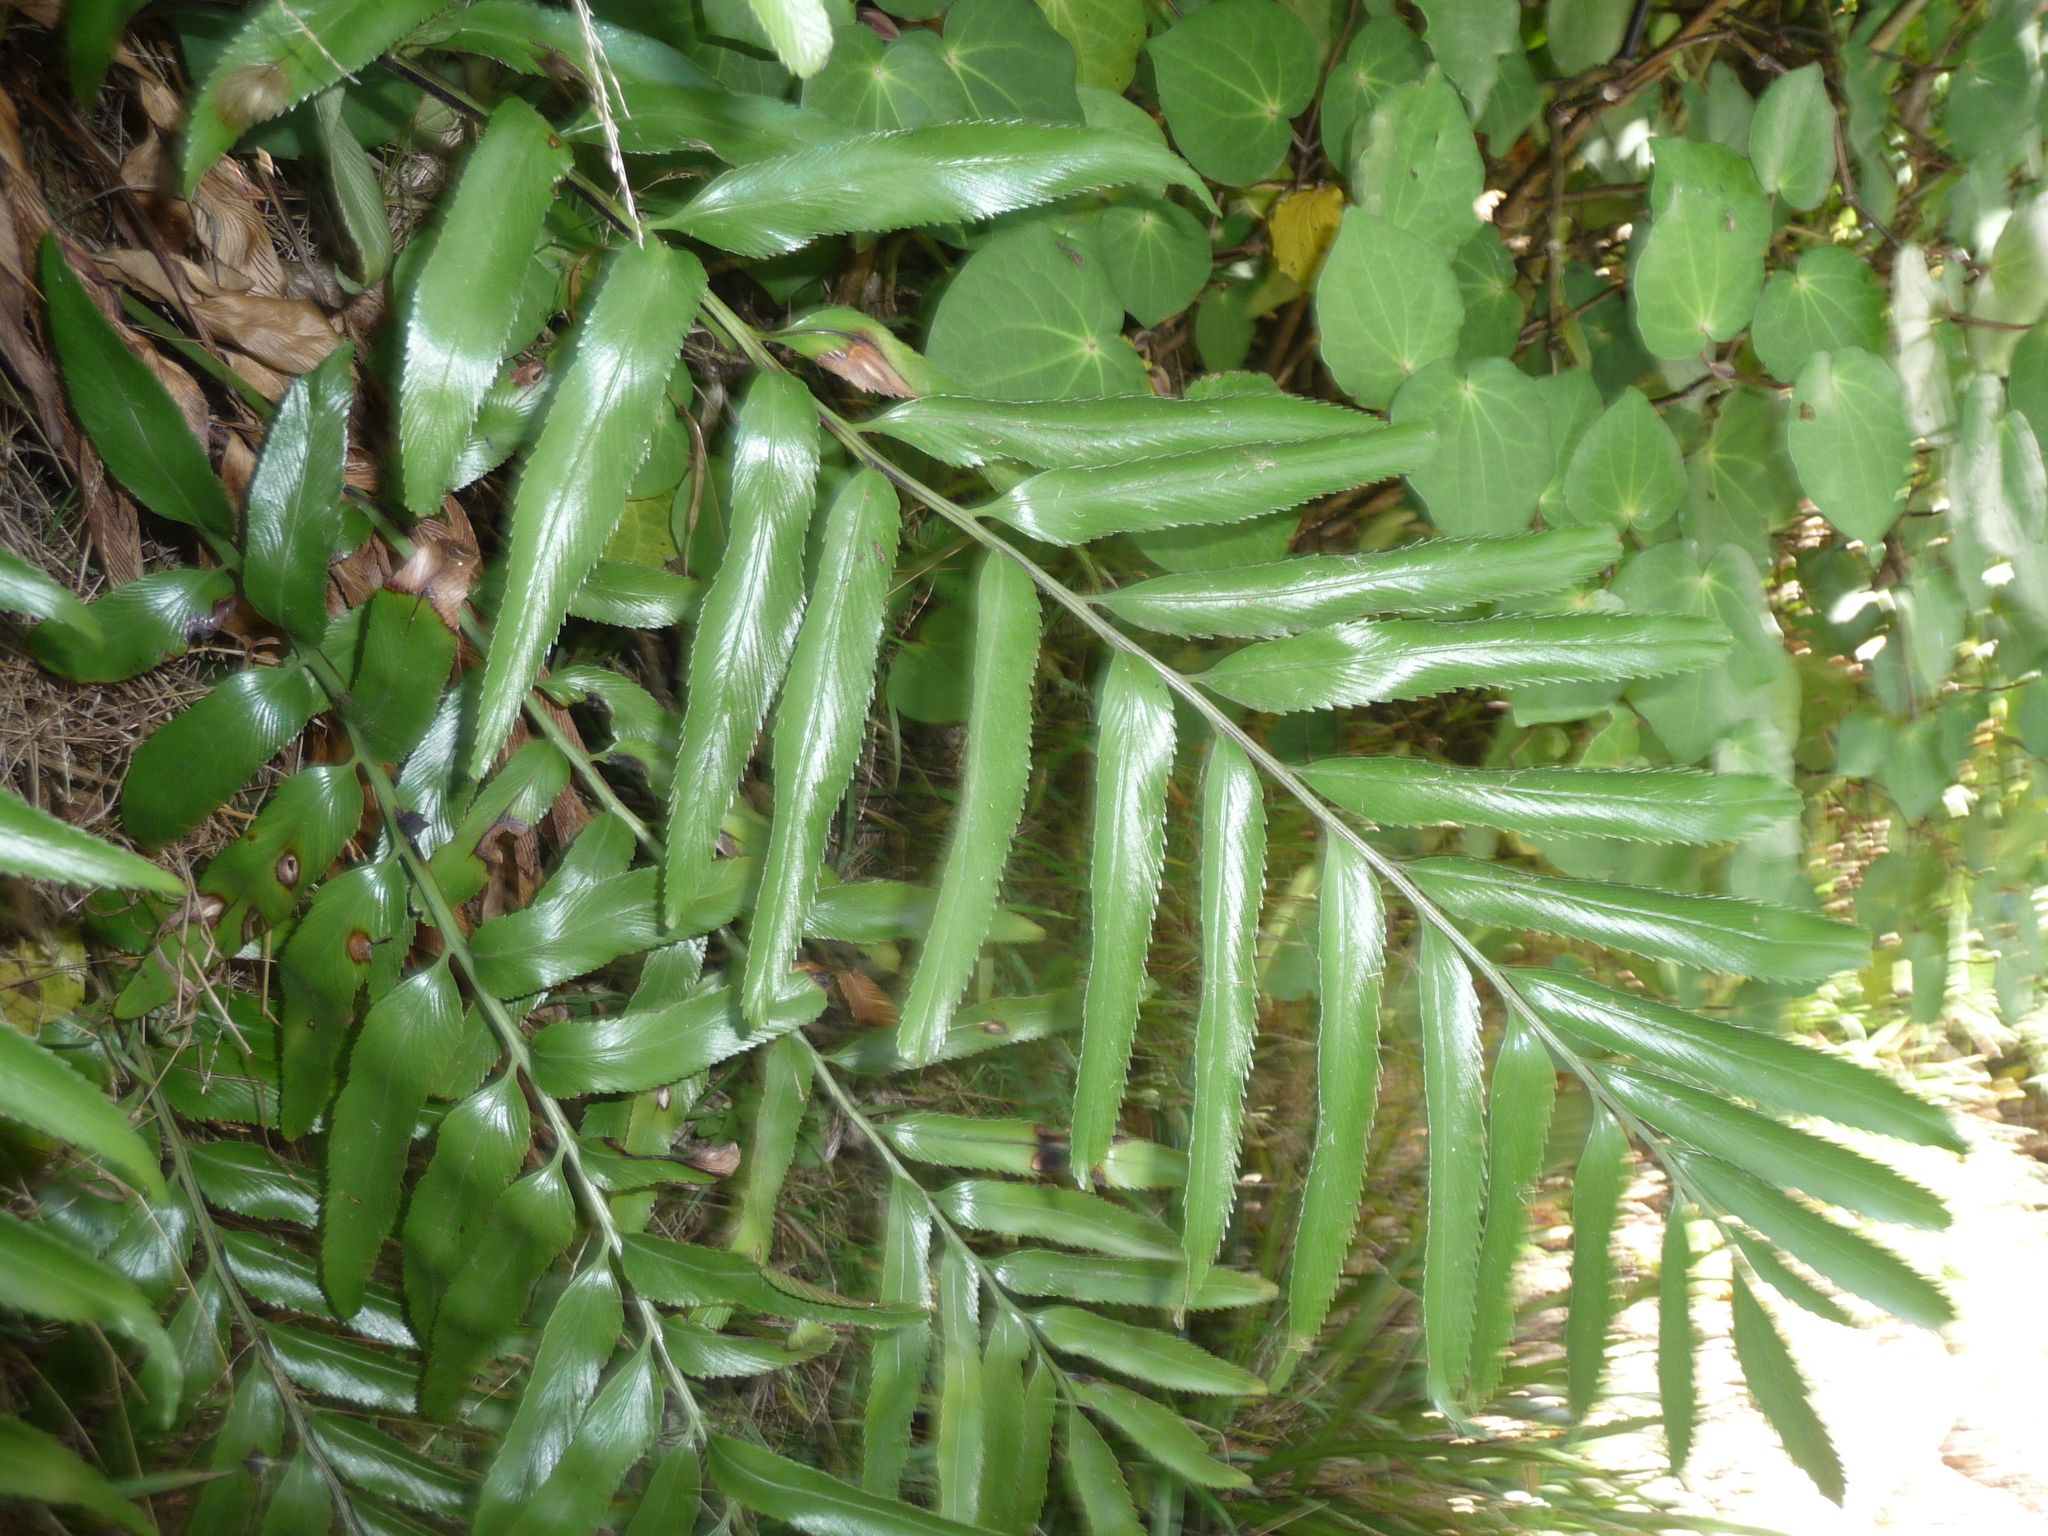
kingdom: Plantae
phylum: Tracheophyta
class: Polypodiopsida
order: Polypodiales
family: Aspleniaceae
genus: Asplenium
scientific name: Asplenium oblongifolium
